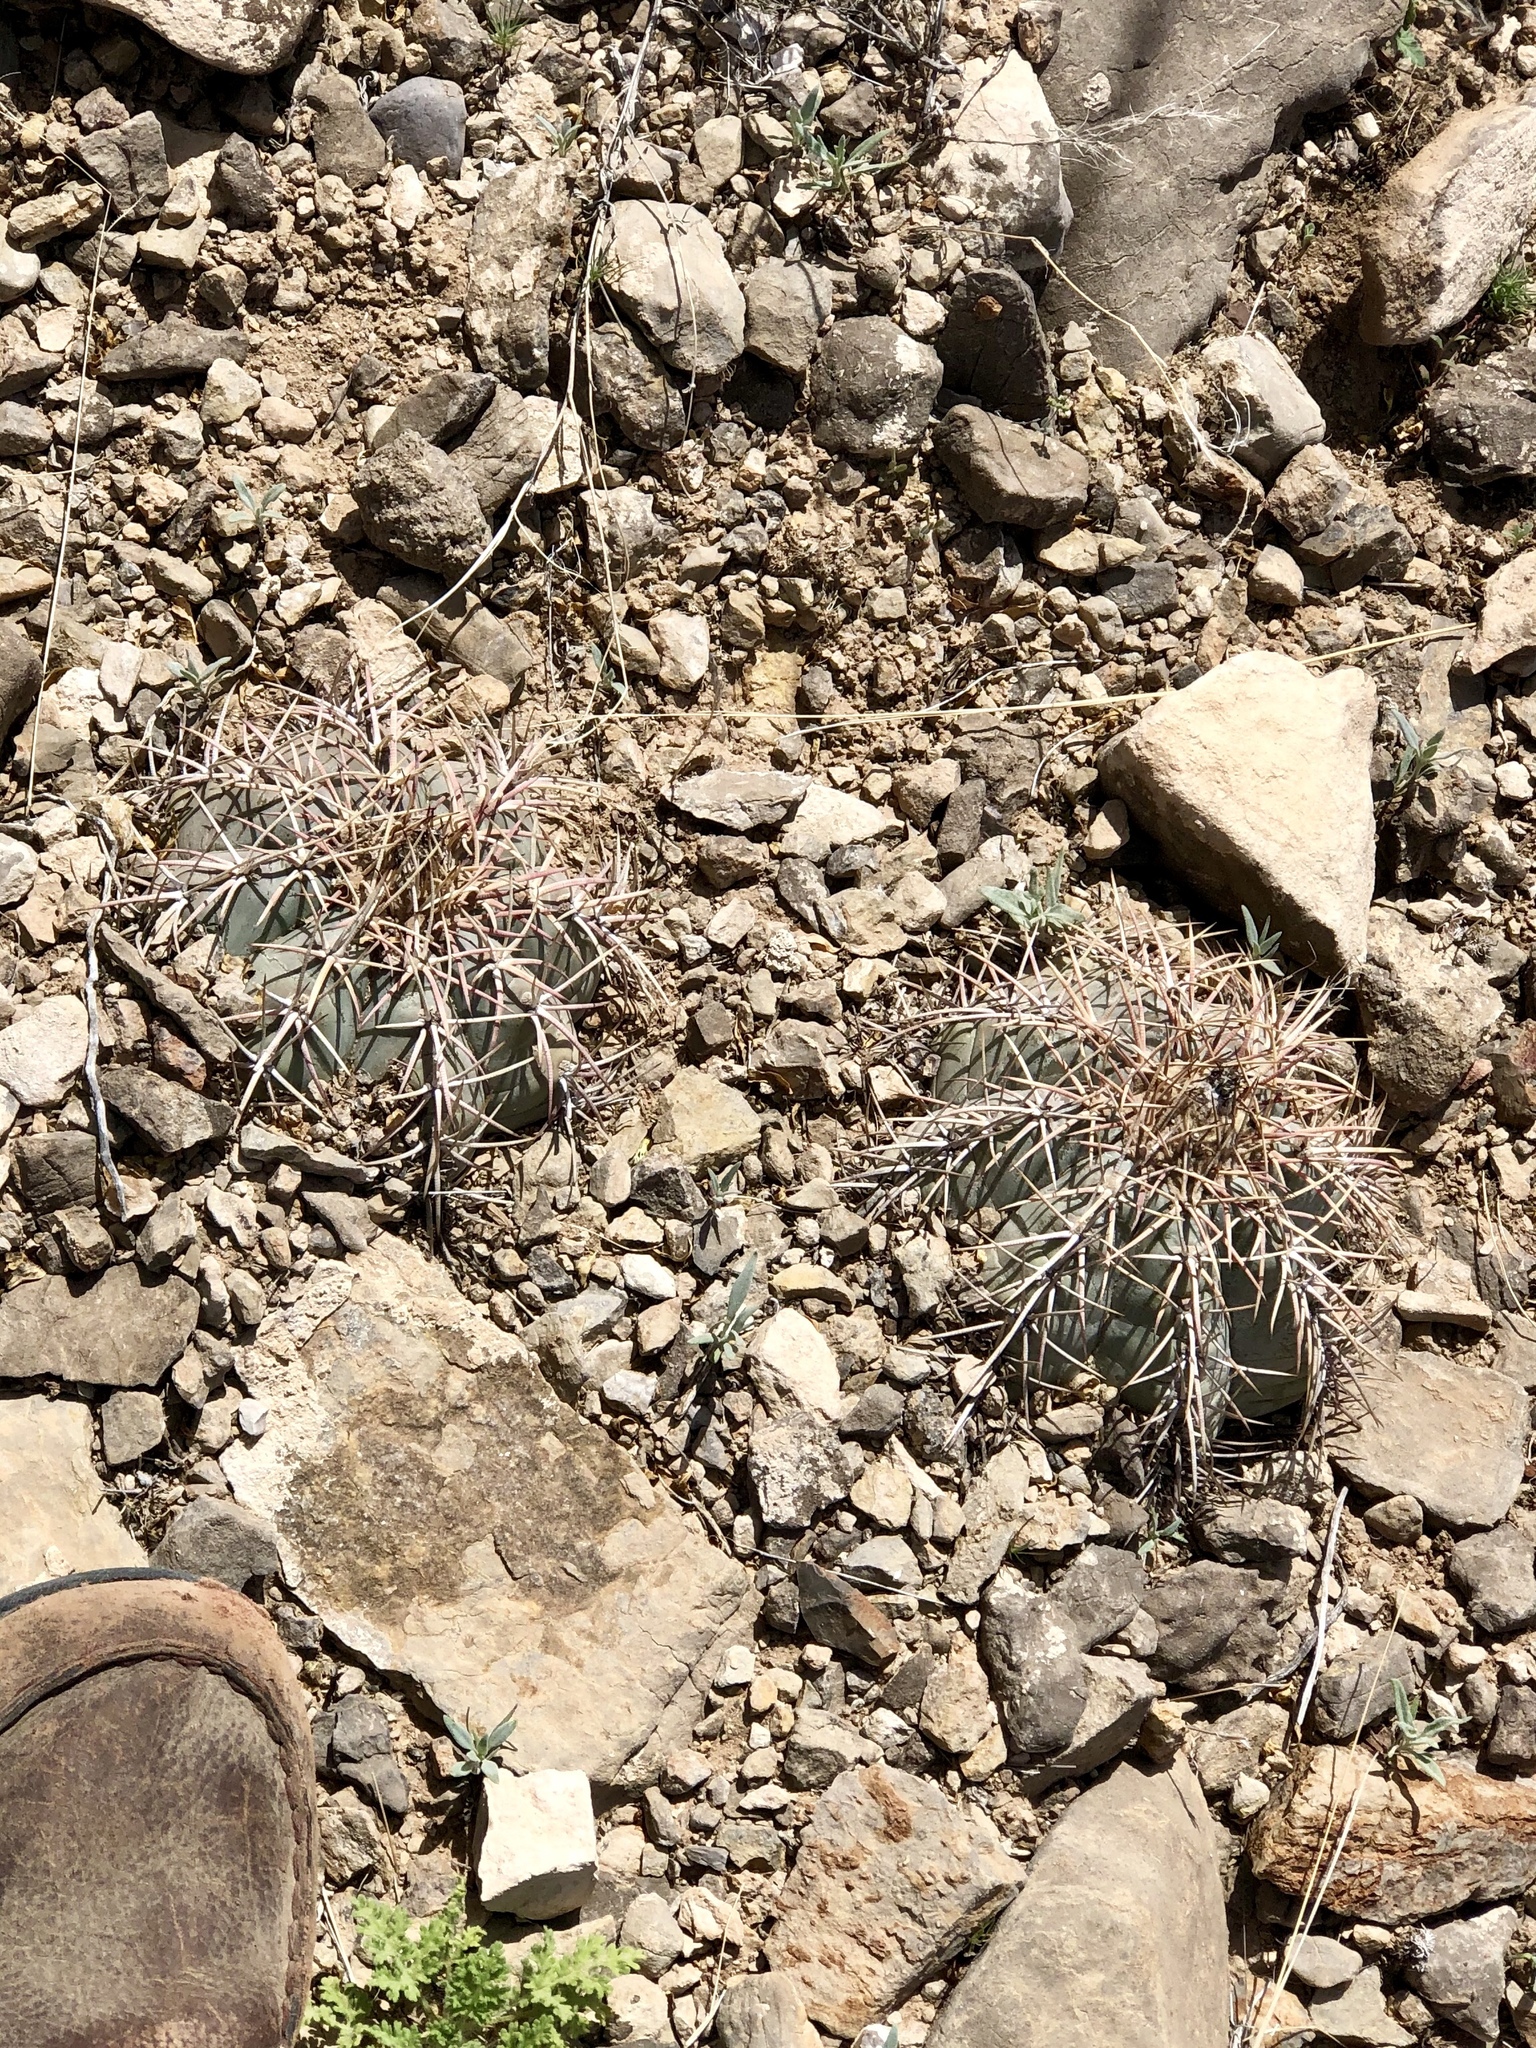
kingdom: Plantae
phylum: Tracheophyta
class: Magnoliopsida
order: Caryophyllales
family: Cactaceae
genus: Echinocactus
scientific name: Echinocactus horizonthalonius
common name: Devilshead
